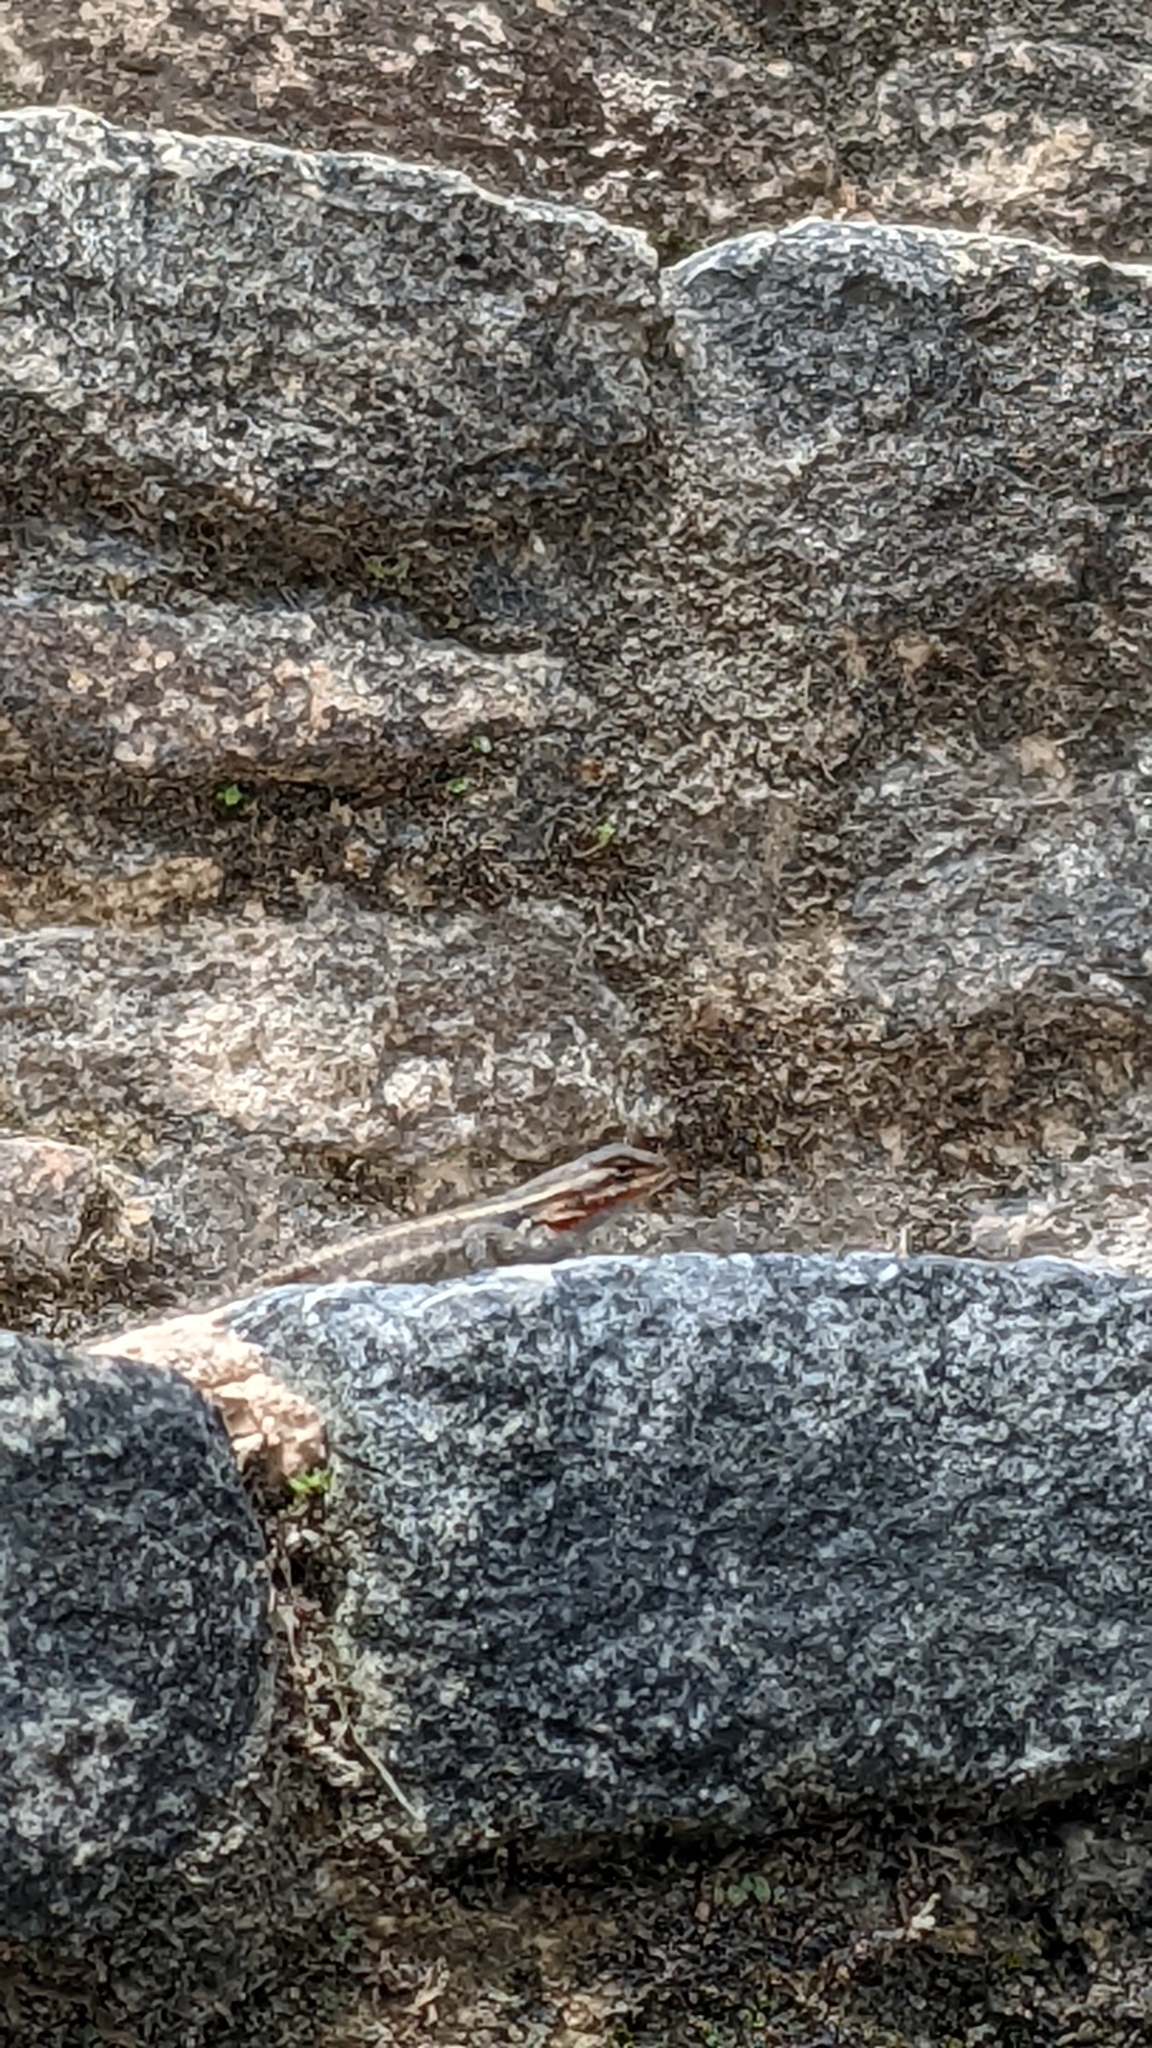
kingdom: Animalia
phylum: Chordata
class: Squamata
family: Phrynosomatidae
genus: Sceloporus
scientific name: Sceloporus teapensis
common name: Teapen rosebelly lizard
